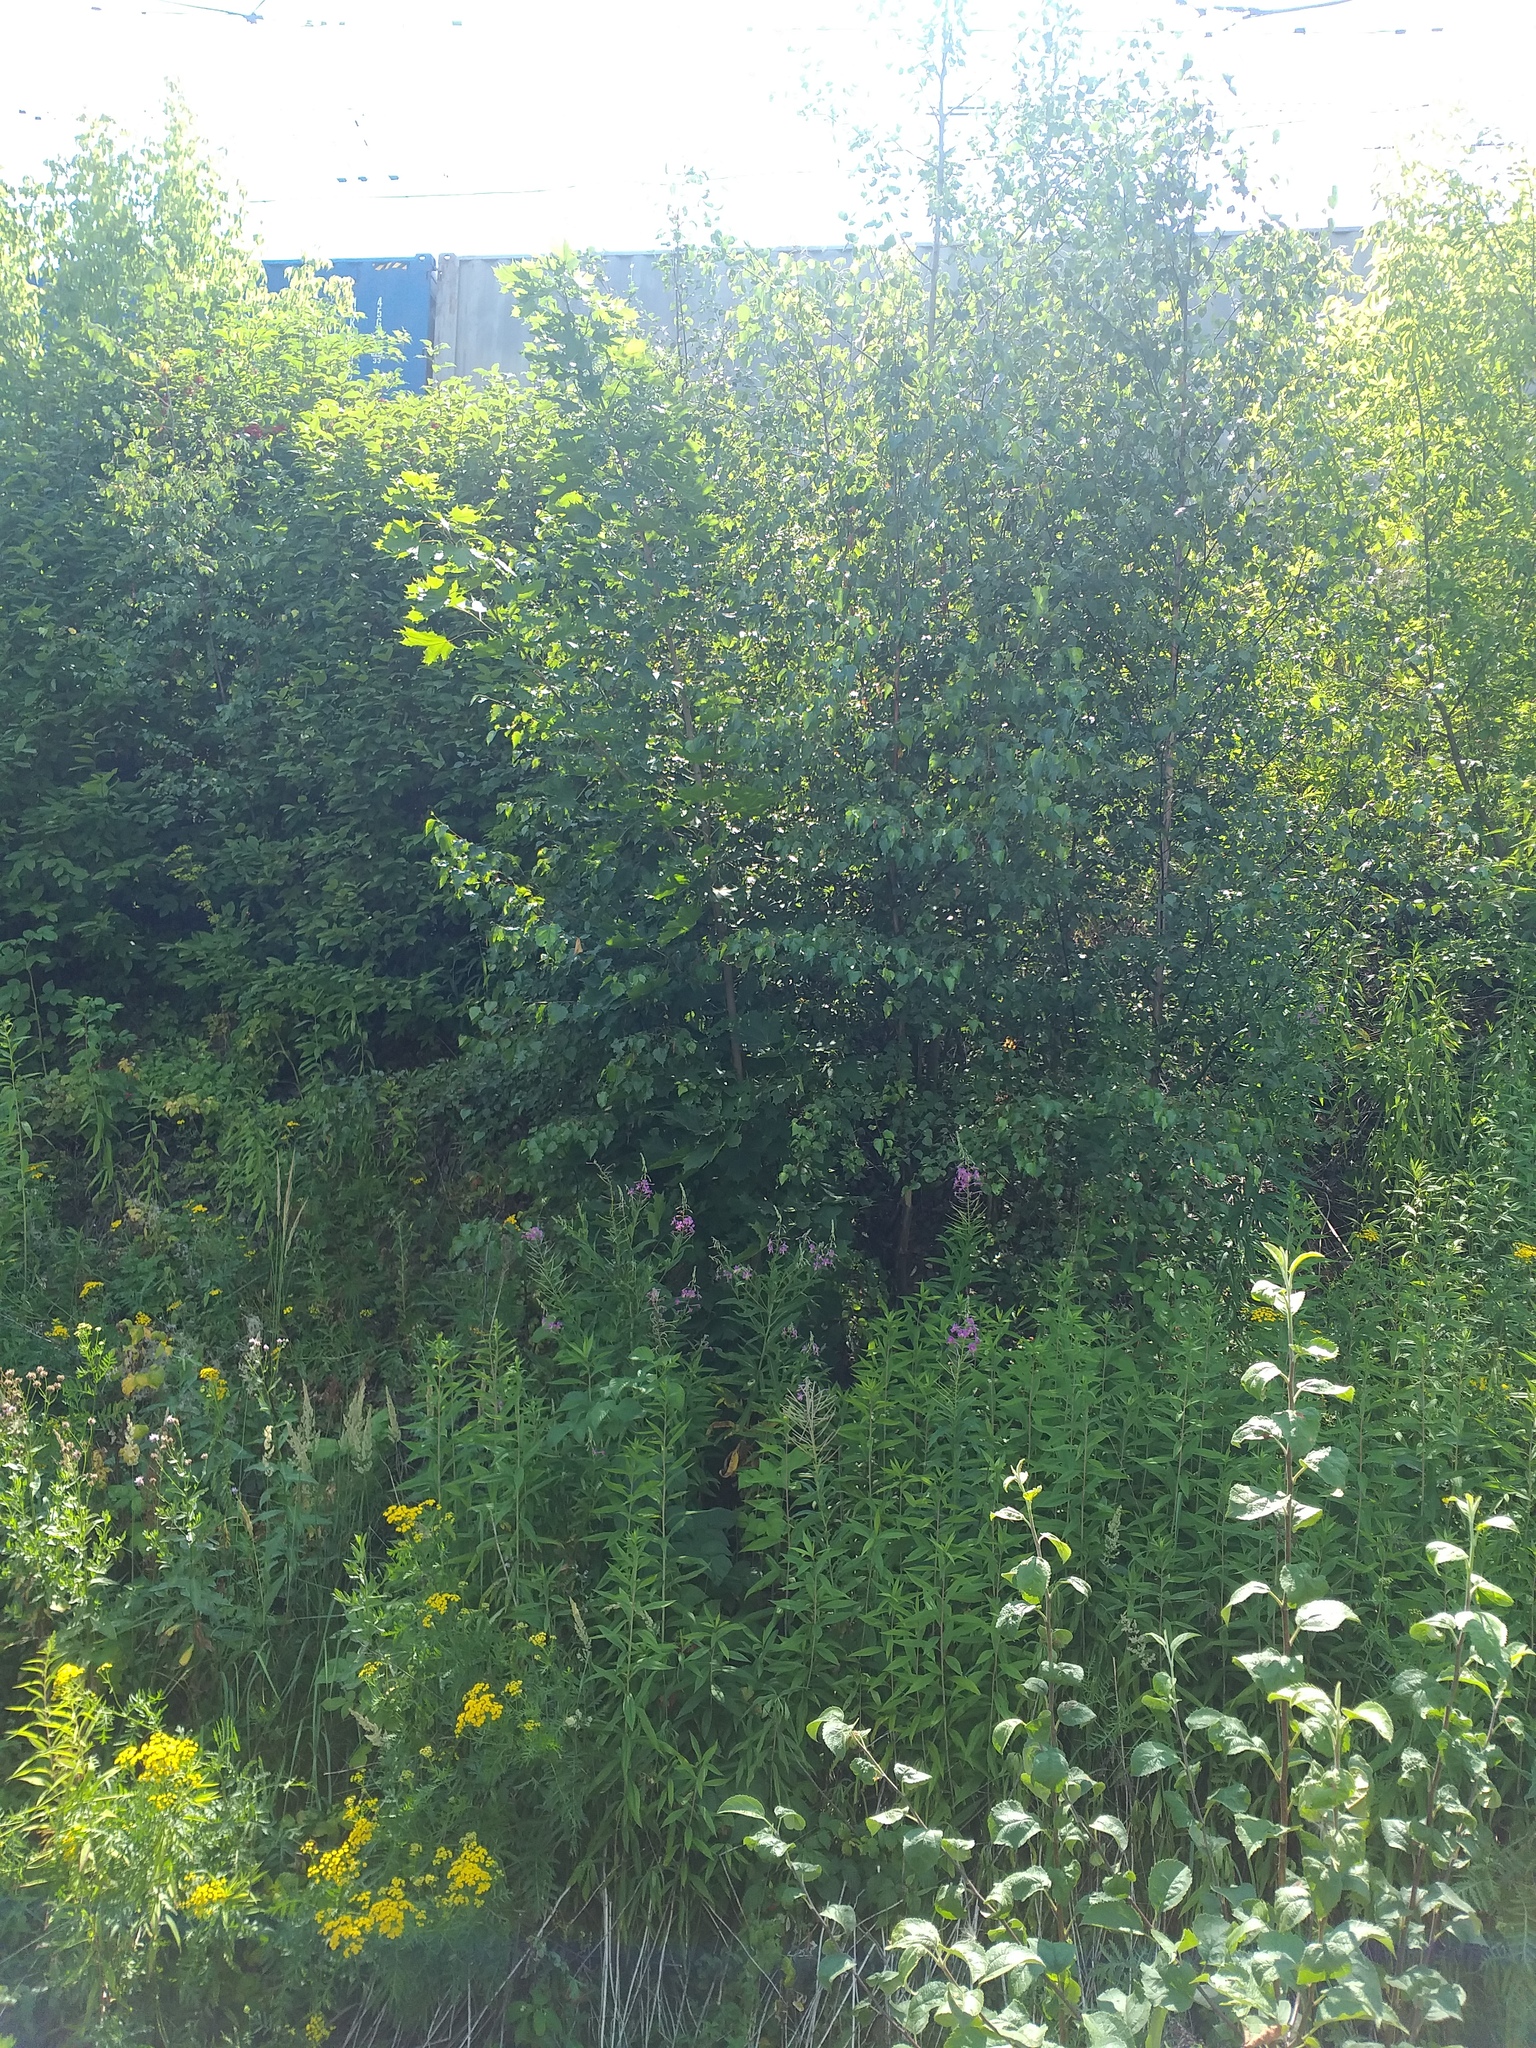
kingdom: Plantae
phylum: Tracheophyta
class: Magnoliopsida
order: Fagales
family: Betulaceae
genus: Betula
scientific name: Betula pendula
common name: Silver birch
